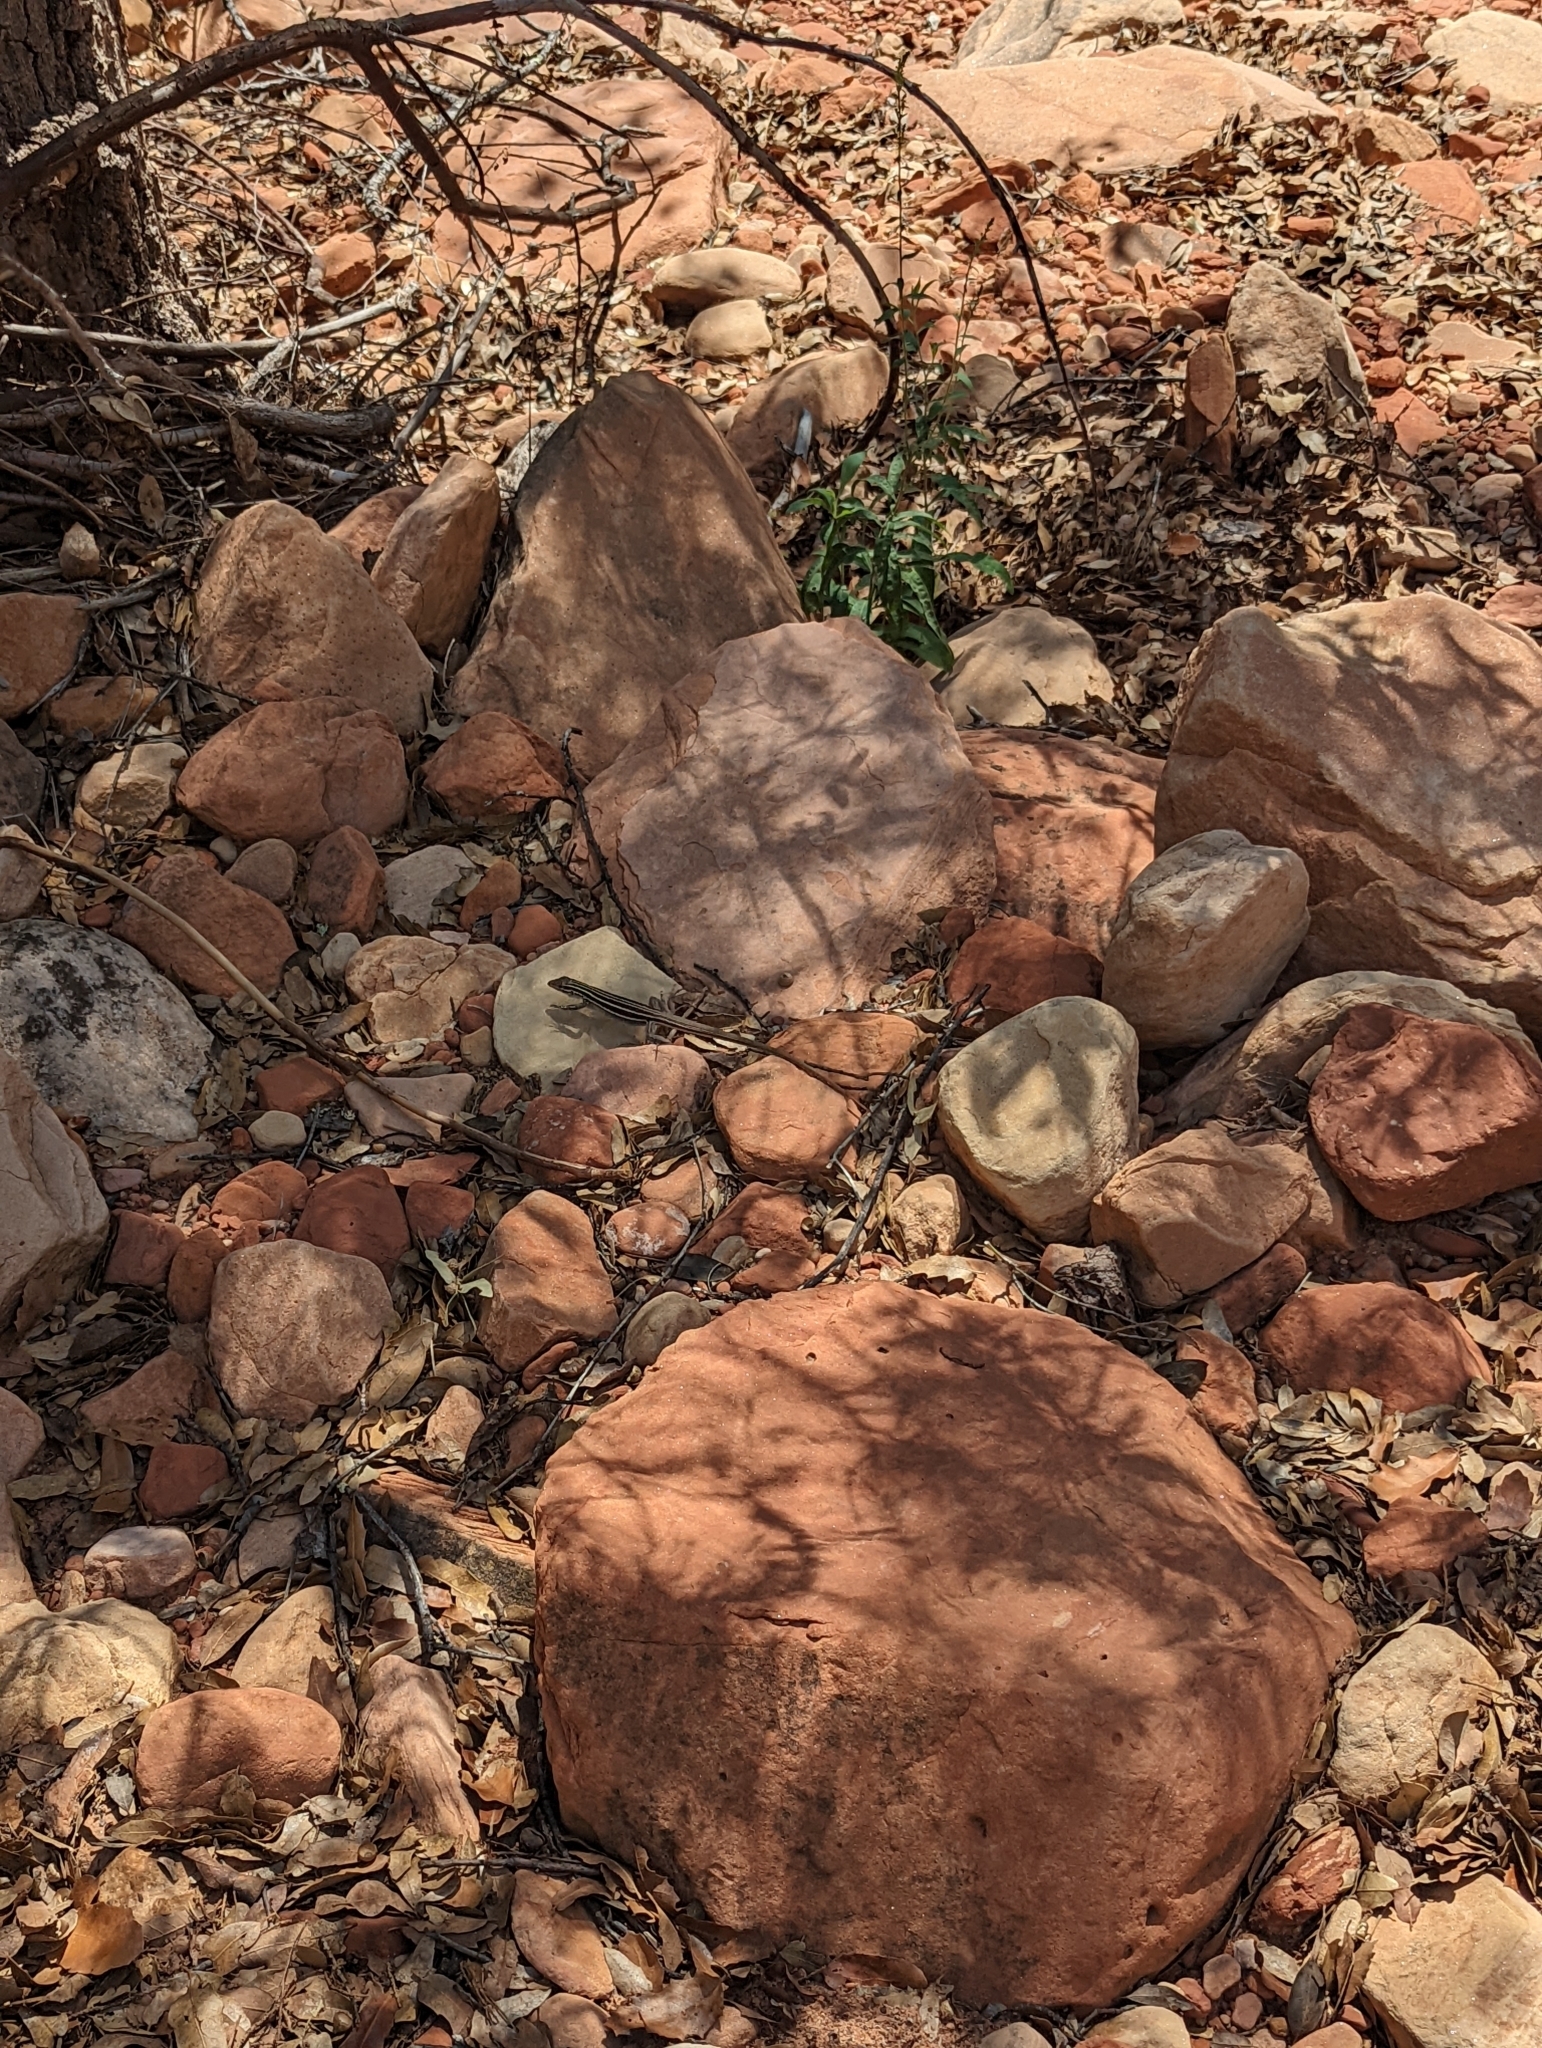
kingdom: Animalia
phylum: Chordata
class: Squamata
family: Teiidae
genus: Aspidoscelis
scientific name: Aspidoscelis sonorae
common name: Sonoran spotted whiptail
